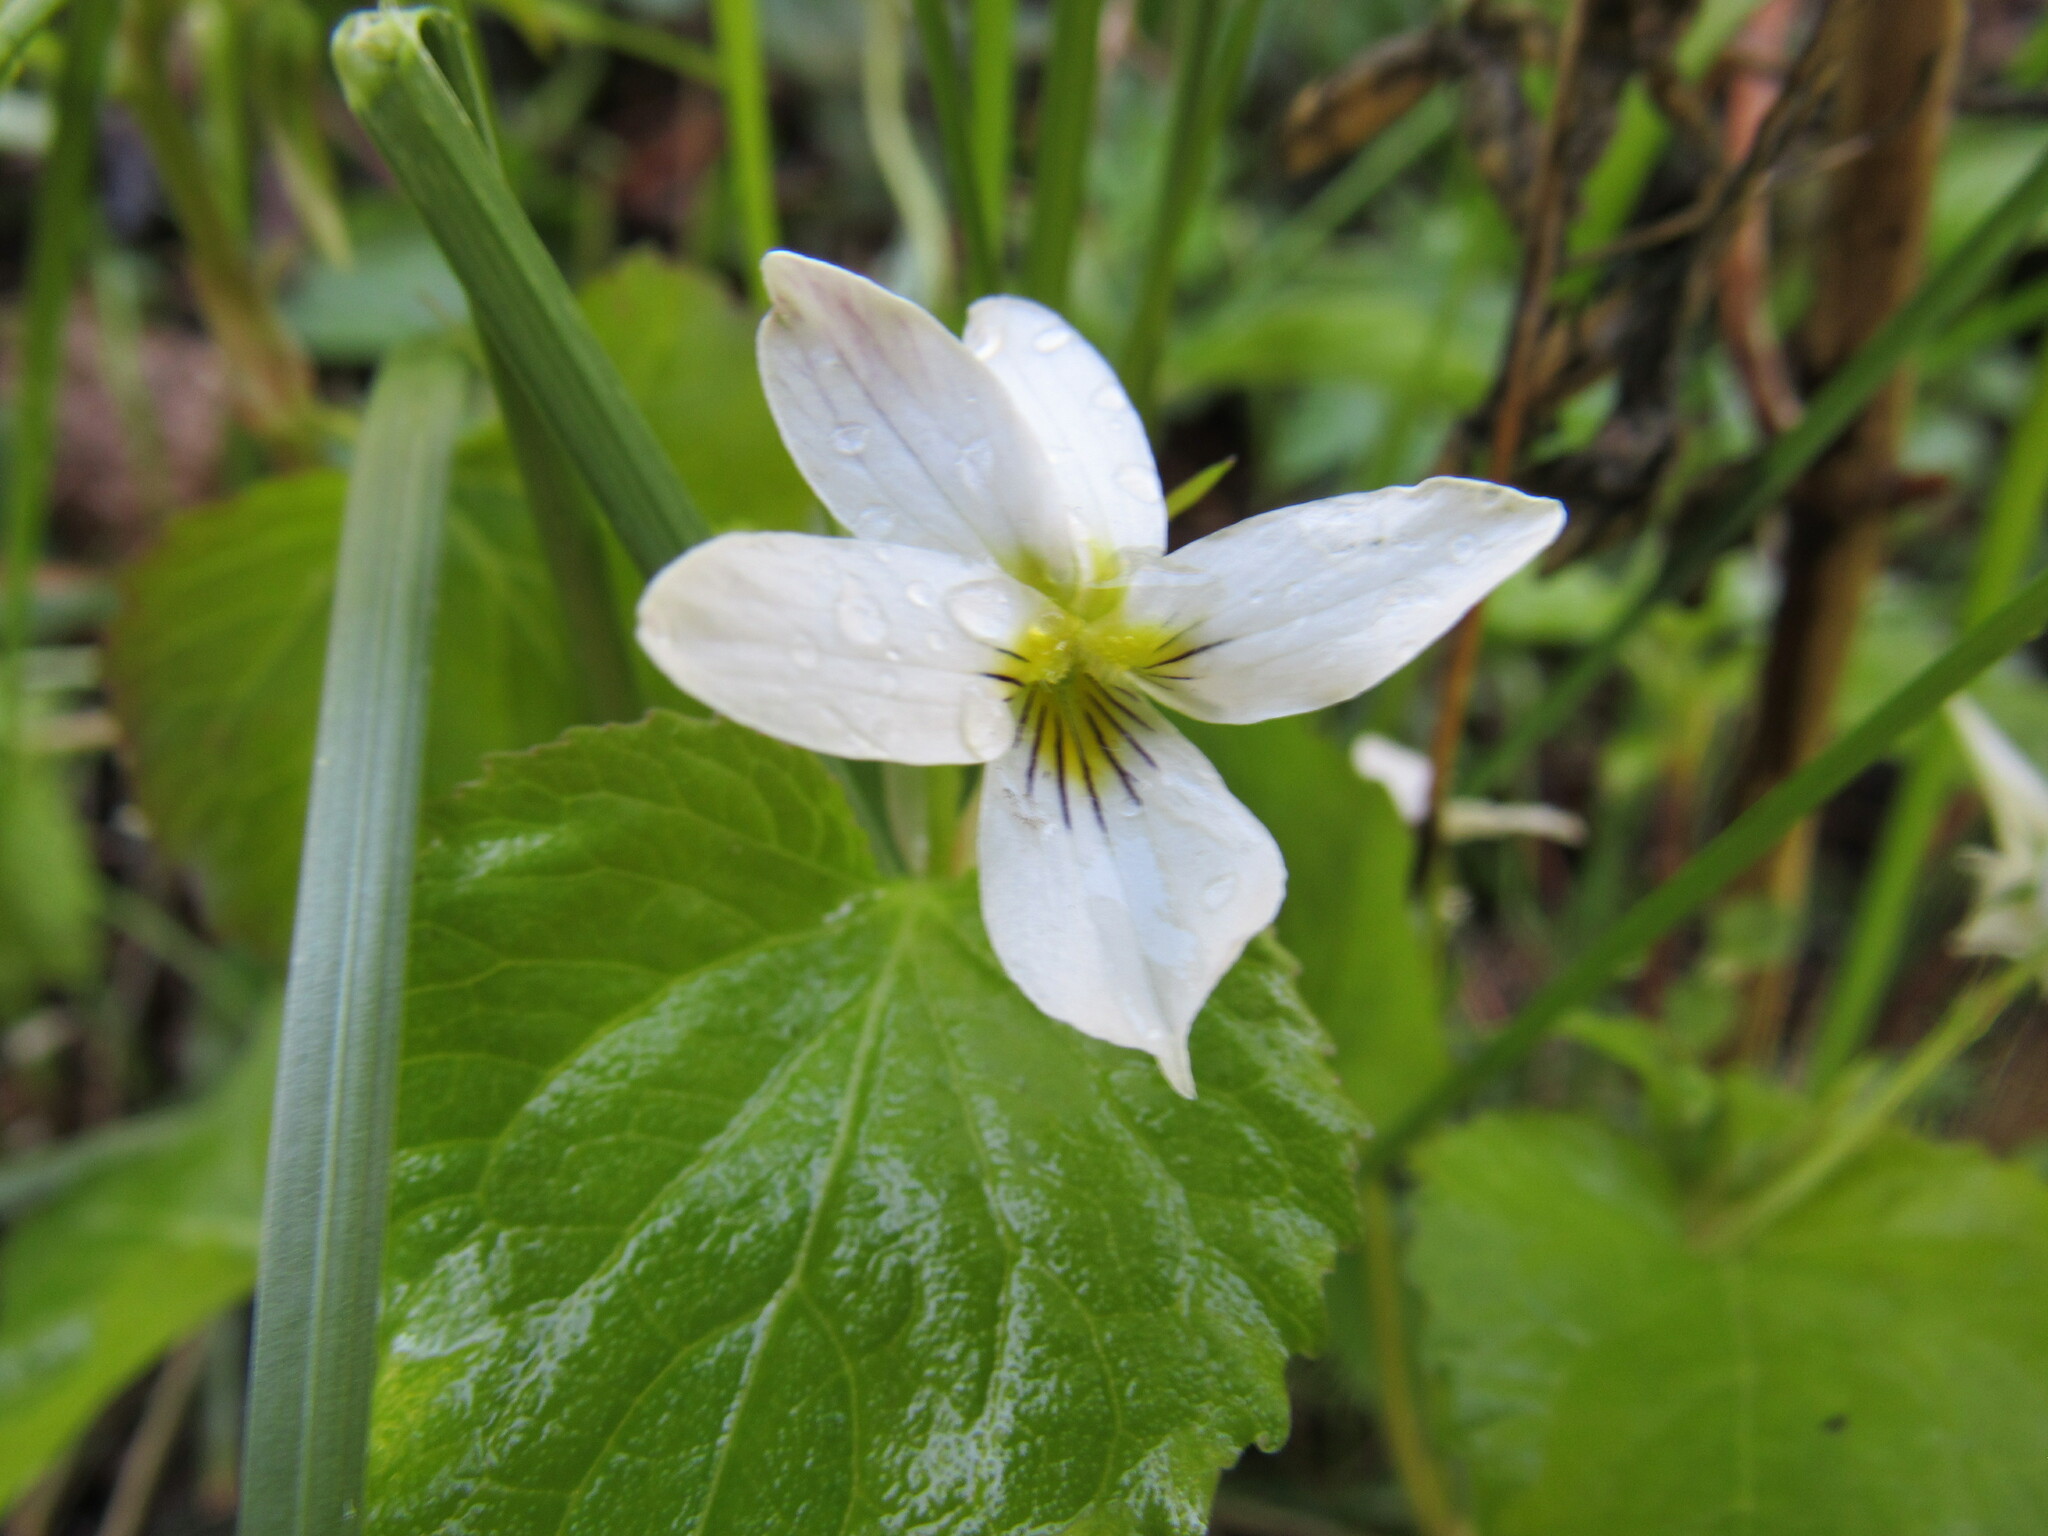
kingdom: Plantae
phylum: Tracheophyta
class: Magnoliopsida
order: Malpighiales
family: Violaceae
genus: Viola
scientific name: Viola canadensis
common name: Canada violet
